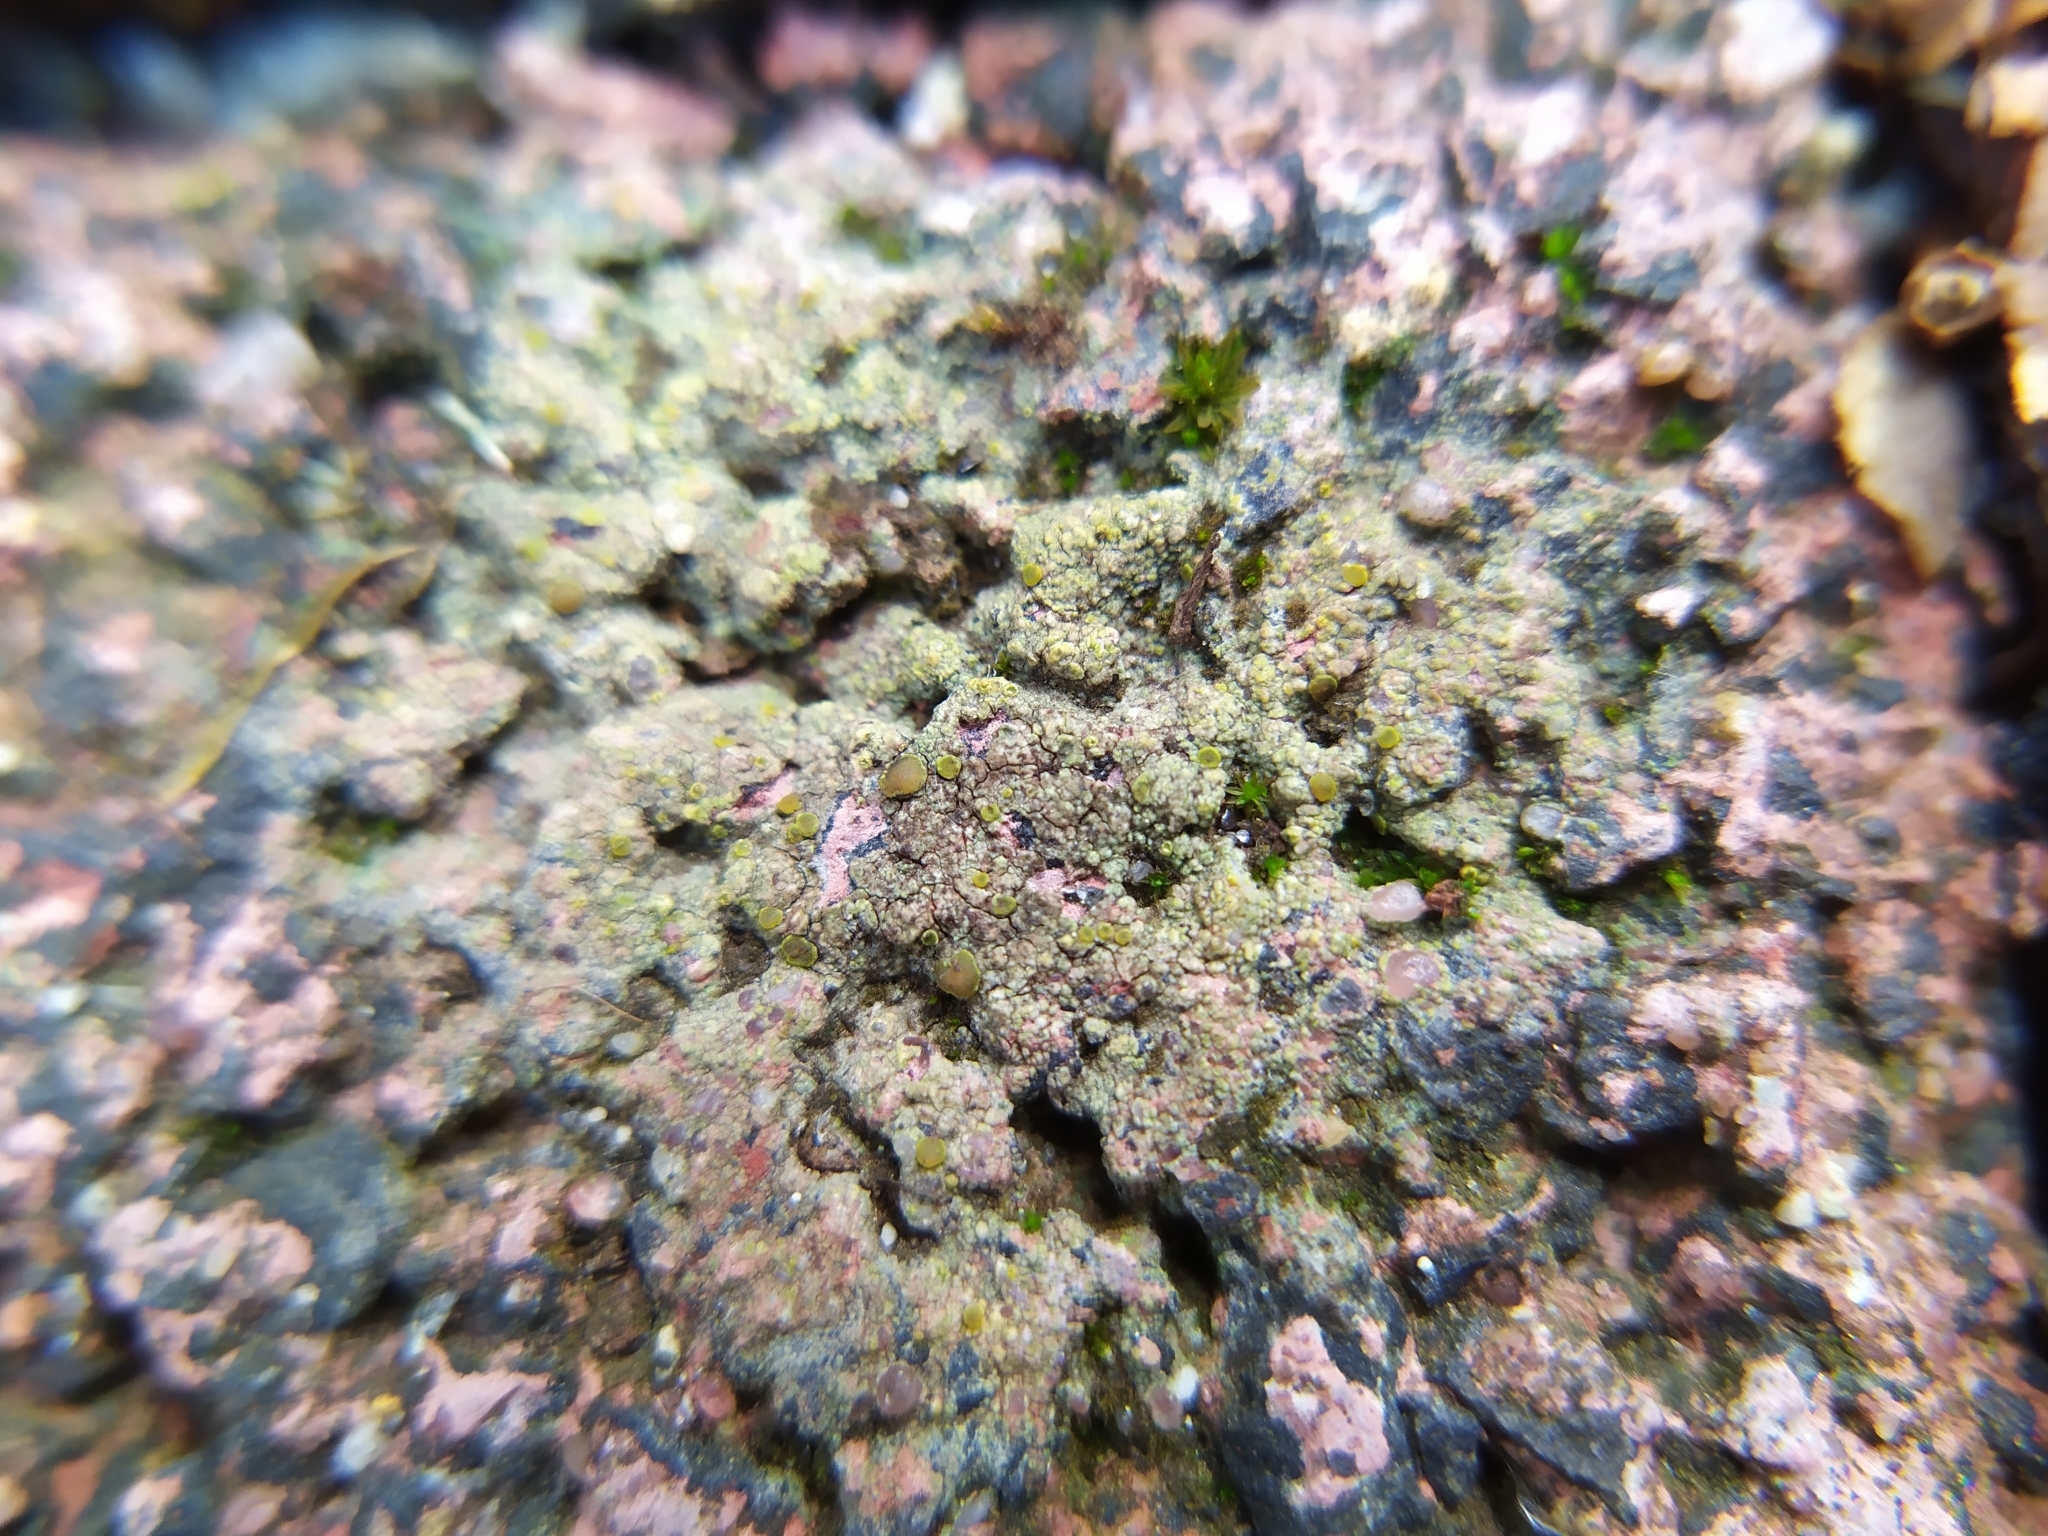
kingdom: Fungi
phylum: Ascomycota
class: Lecanoromycetes
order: Teloschistales
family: Teloschistaceae
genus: Gyalolechia
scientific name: Gyalolechia flavovirescens
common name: Sulphur firedot
